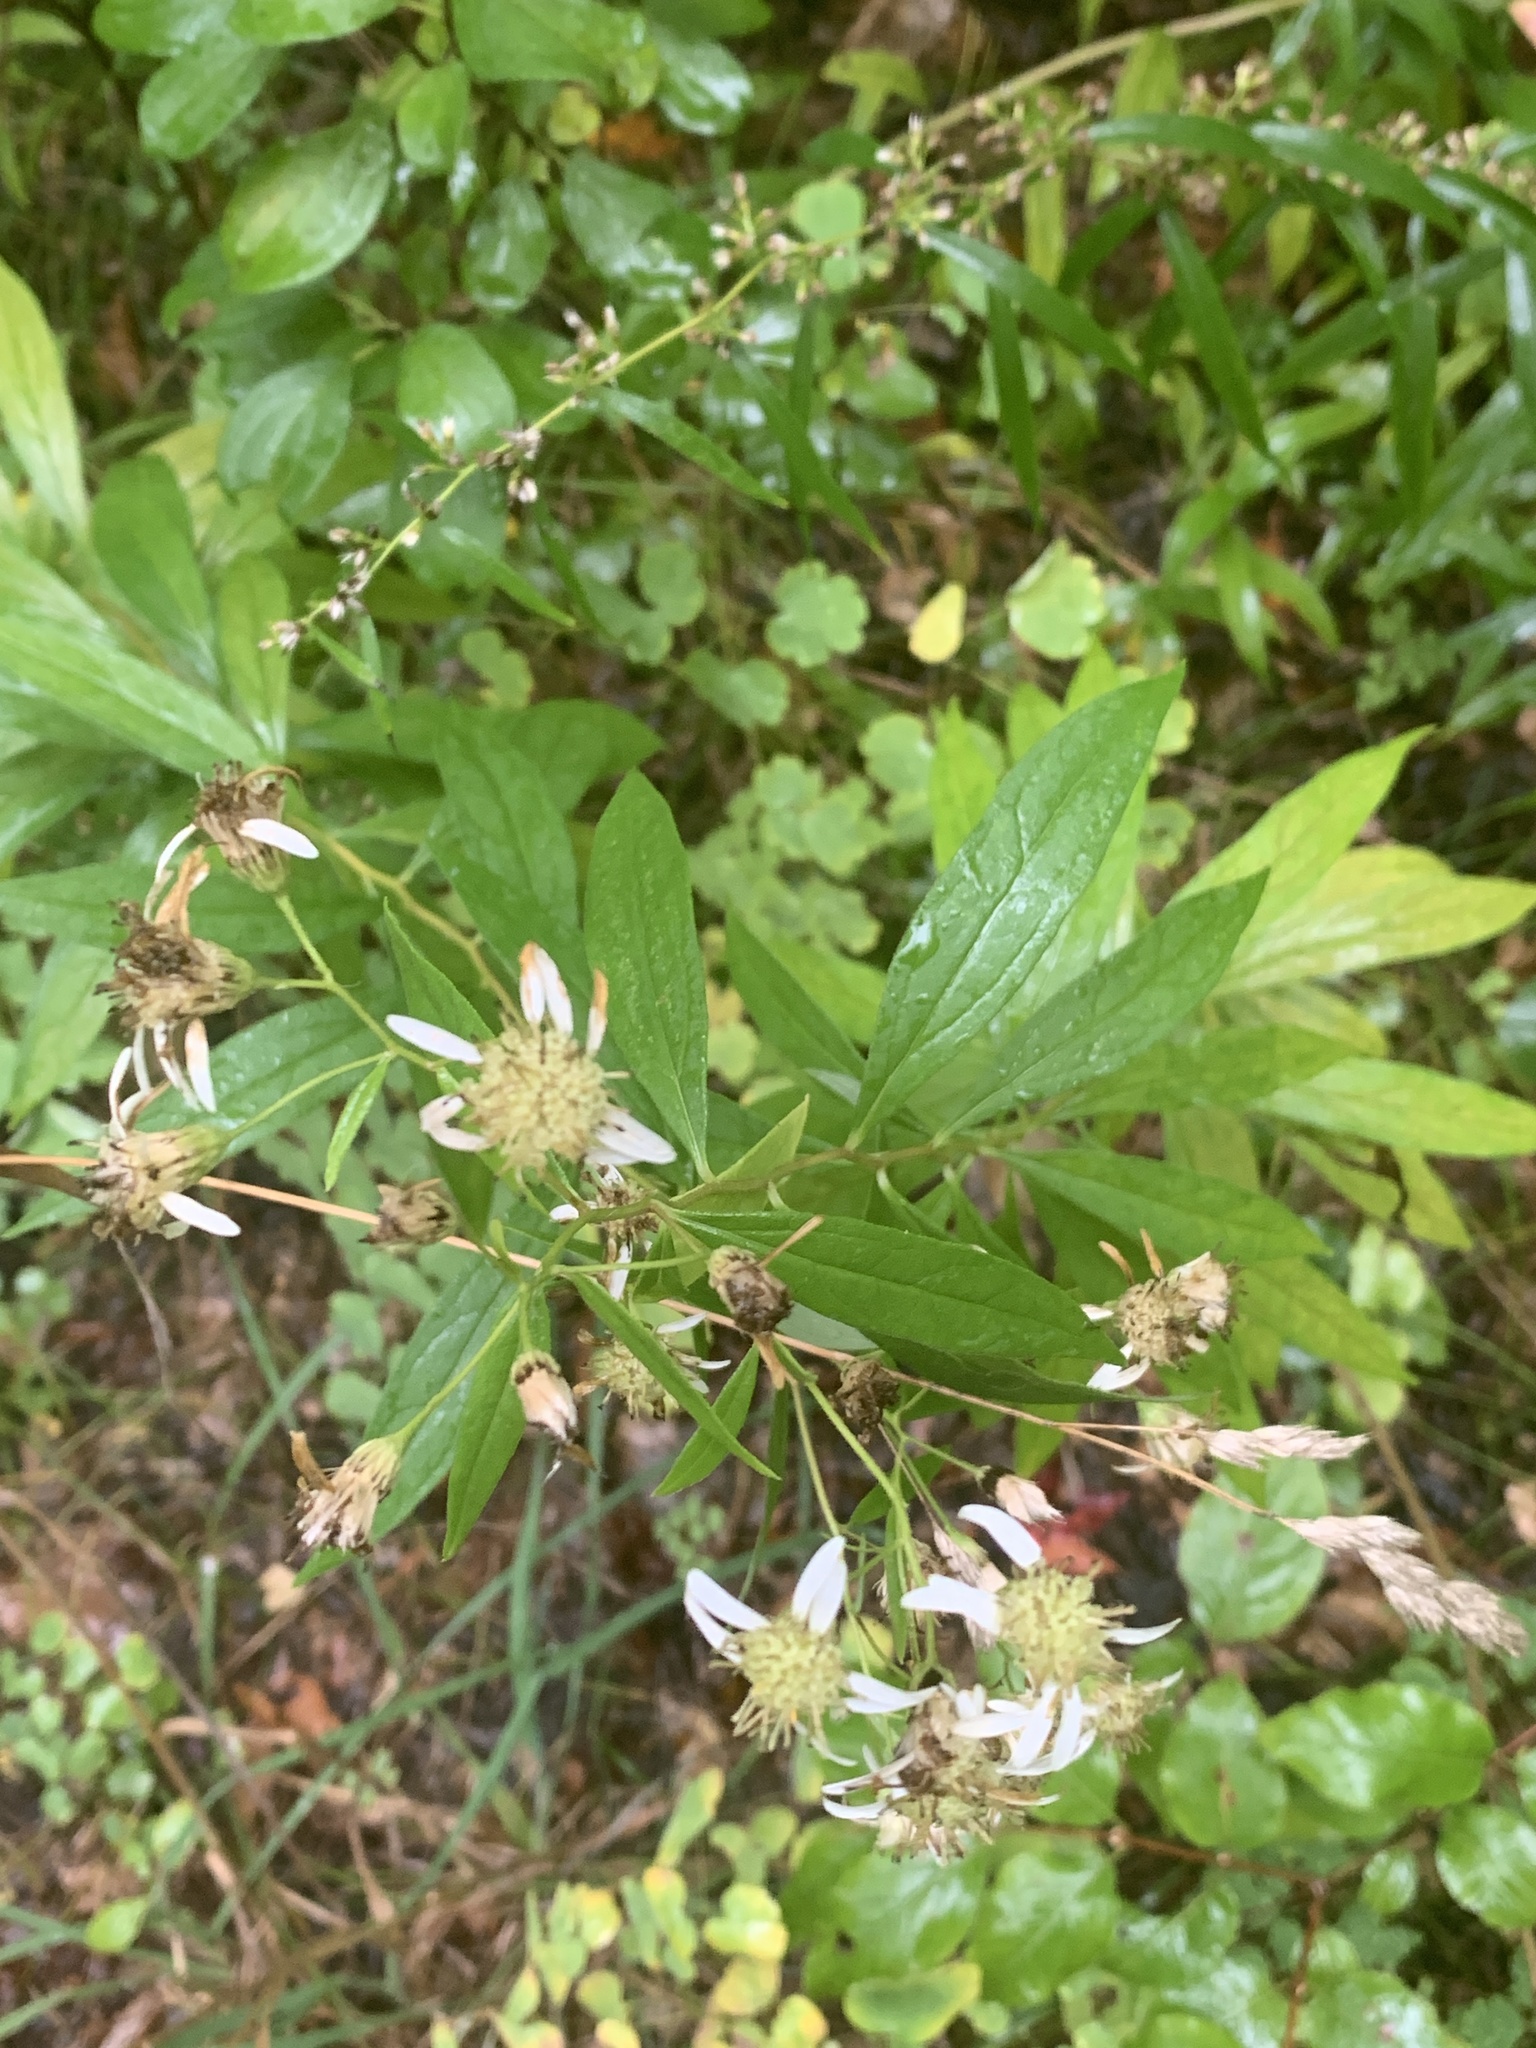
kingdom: Plantae
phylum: Tracheophyta
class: Magnoliopsida
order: Asterales
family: Asteraceae
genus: Doellingeria
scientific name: Doellingeria umbellata
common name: Flat-top white aster
